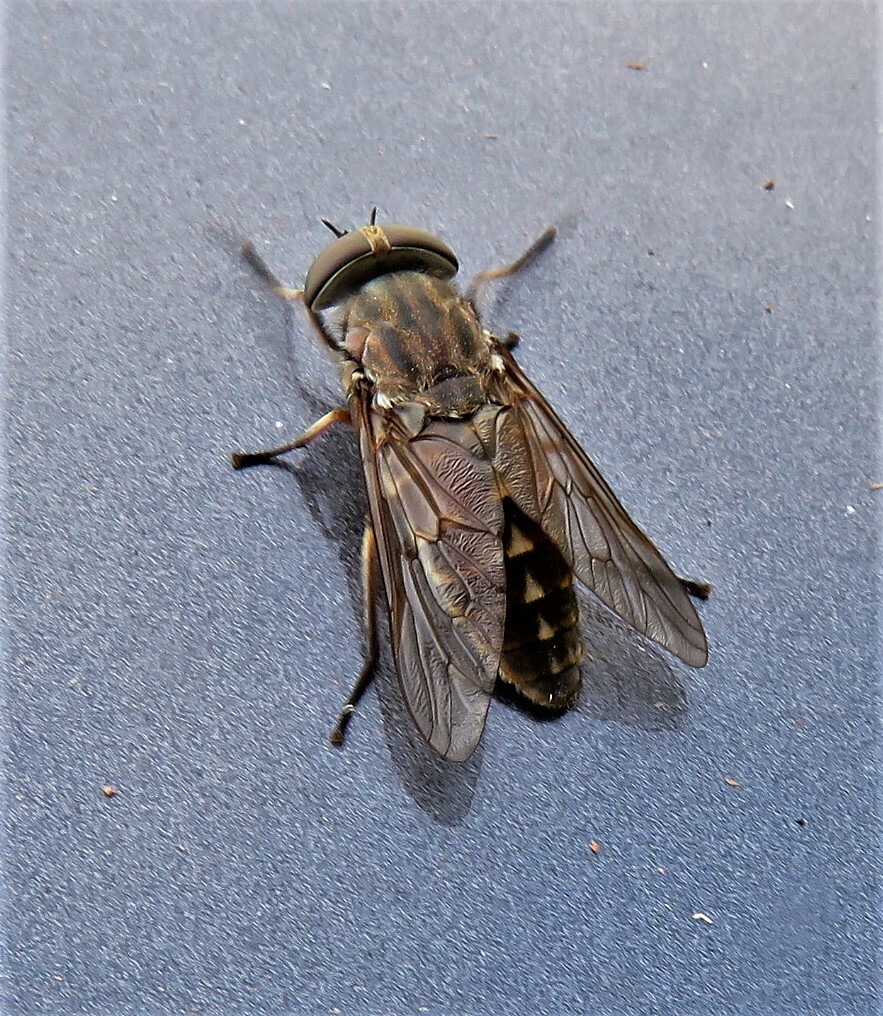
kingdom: Animalia
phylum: Arthropoda
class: Insecta
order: Diptera
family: Tabanidae
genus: Tabanus
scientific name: Tabanus novaescotiae
